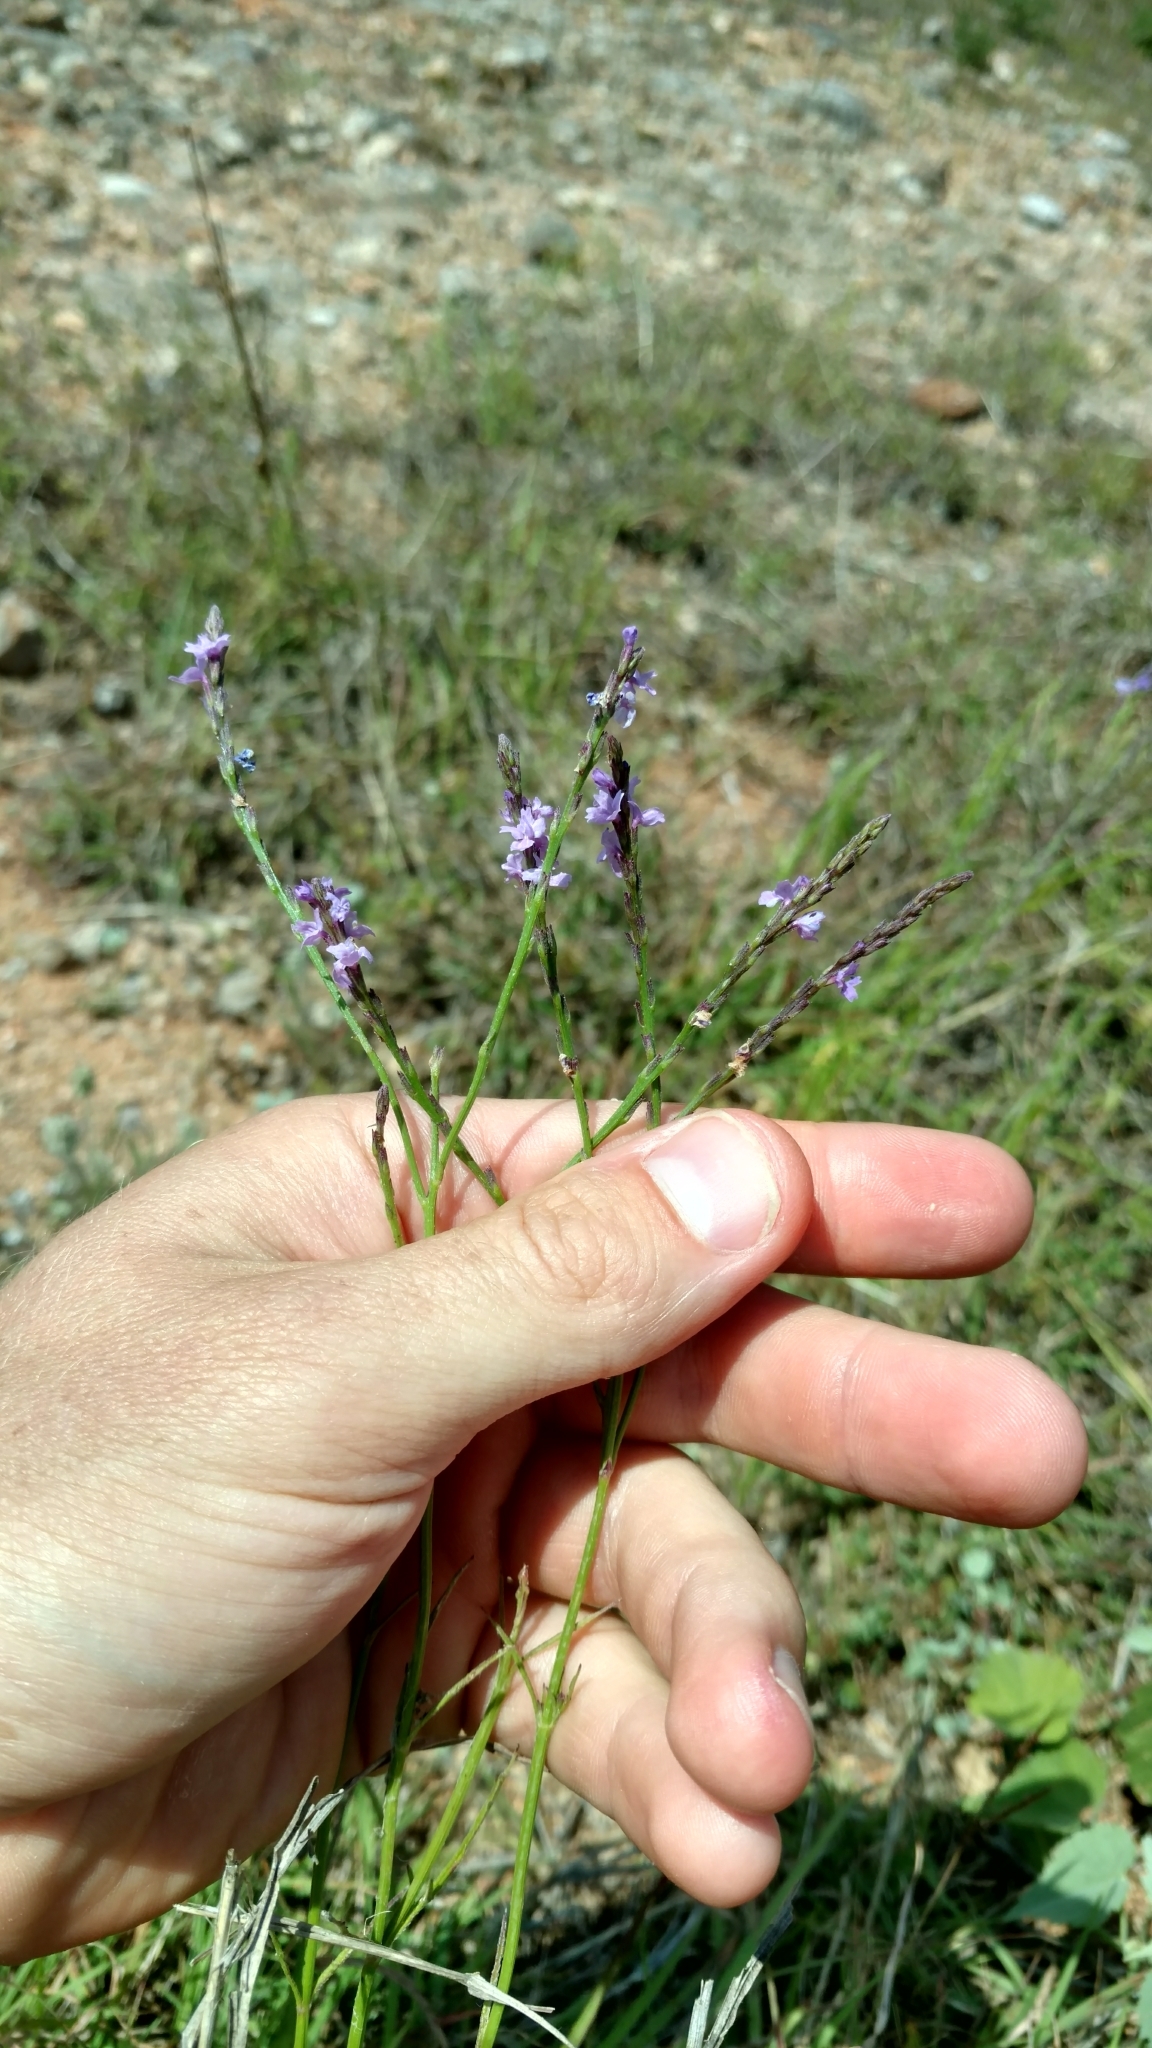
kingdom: Plantae
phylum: Tracheophyta
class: Magnoliopsida
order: Lamiales
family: Verbenaceae
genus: Verbena
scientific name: Verbena halei
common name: Texas vervain
